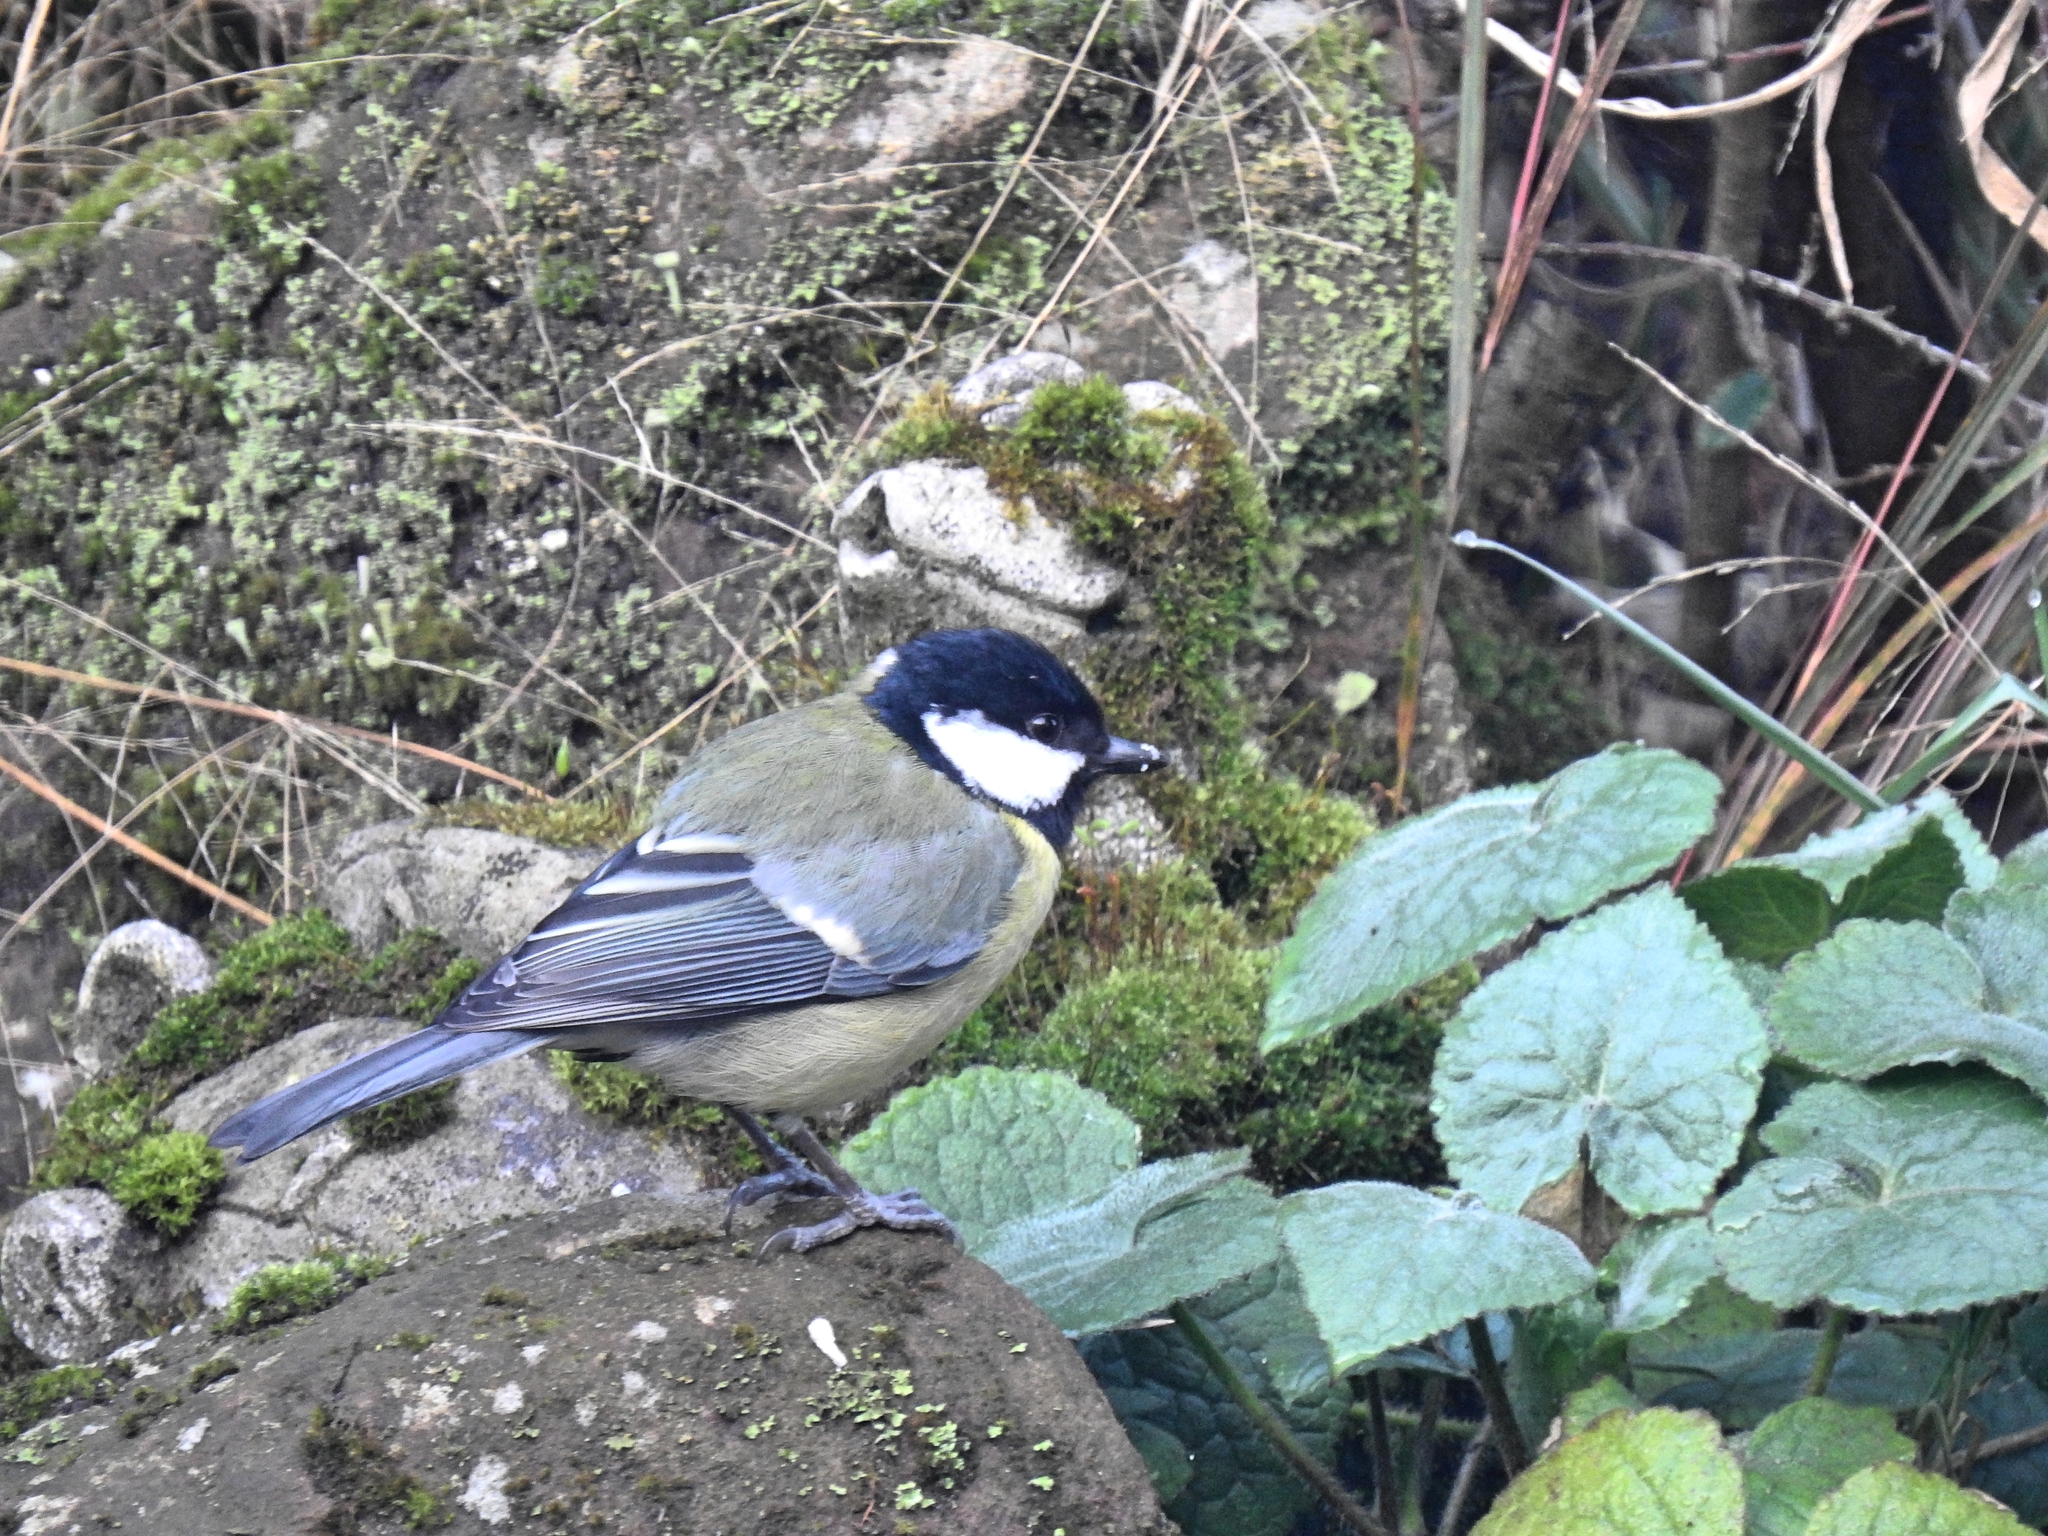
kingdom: Animalia
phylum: Chordata
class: Aves
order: Passeriformes
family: Paridae
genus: Parus
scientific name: Parus major
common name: Great tit
